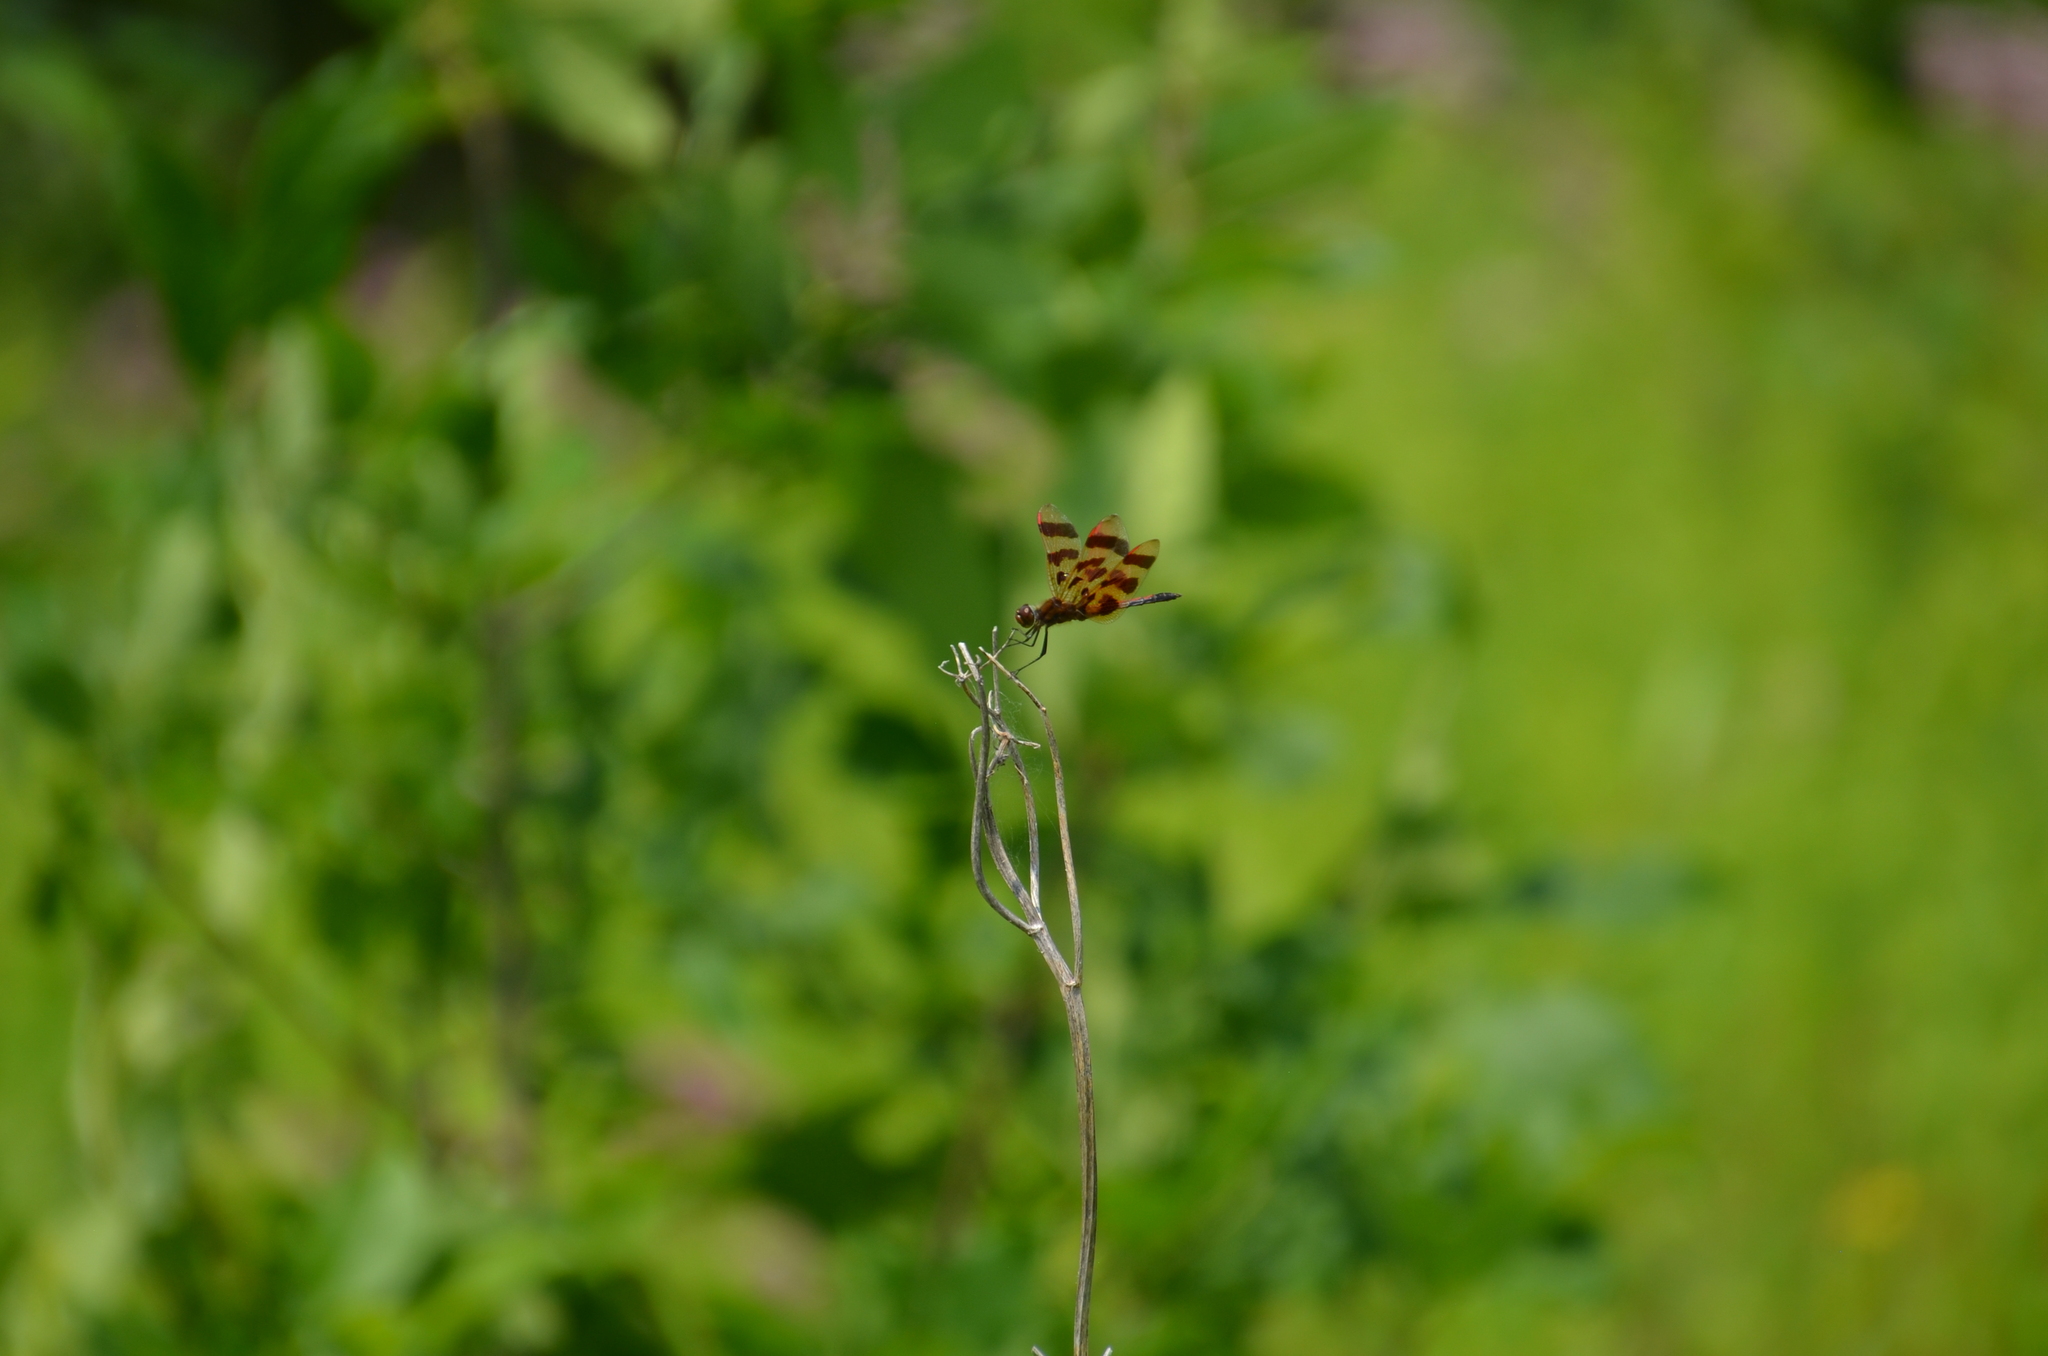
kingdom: Animalia
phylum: Arthropoda
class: Insecta
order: Odonata
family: Libellulidae
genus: Celithemis
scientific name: Celithemis eponina
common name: Halloween pennant
